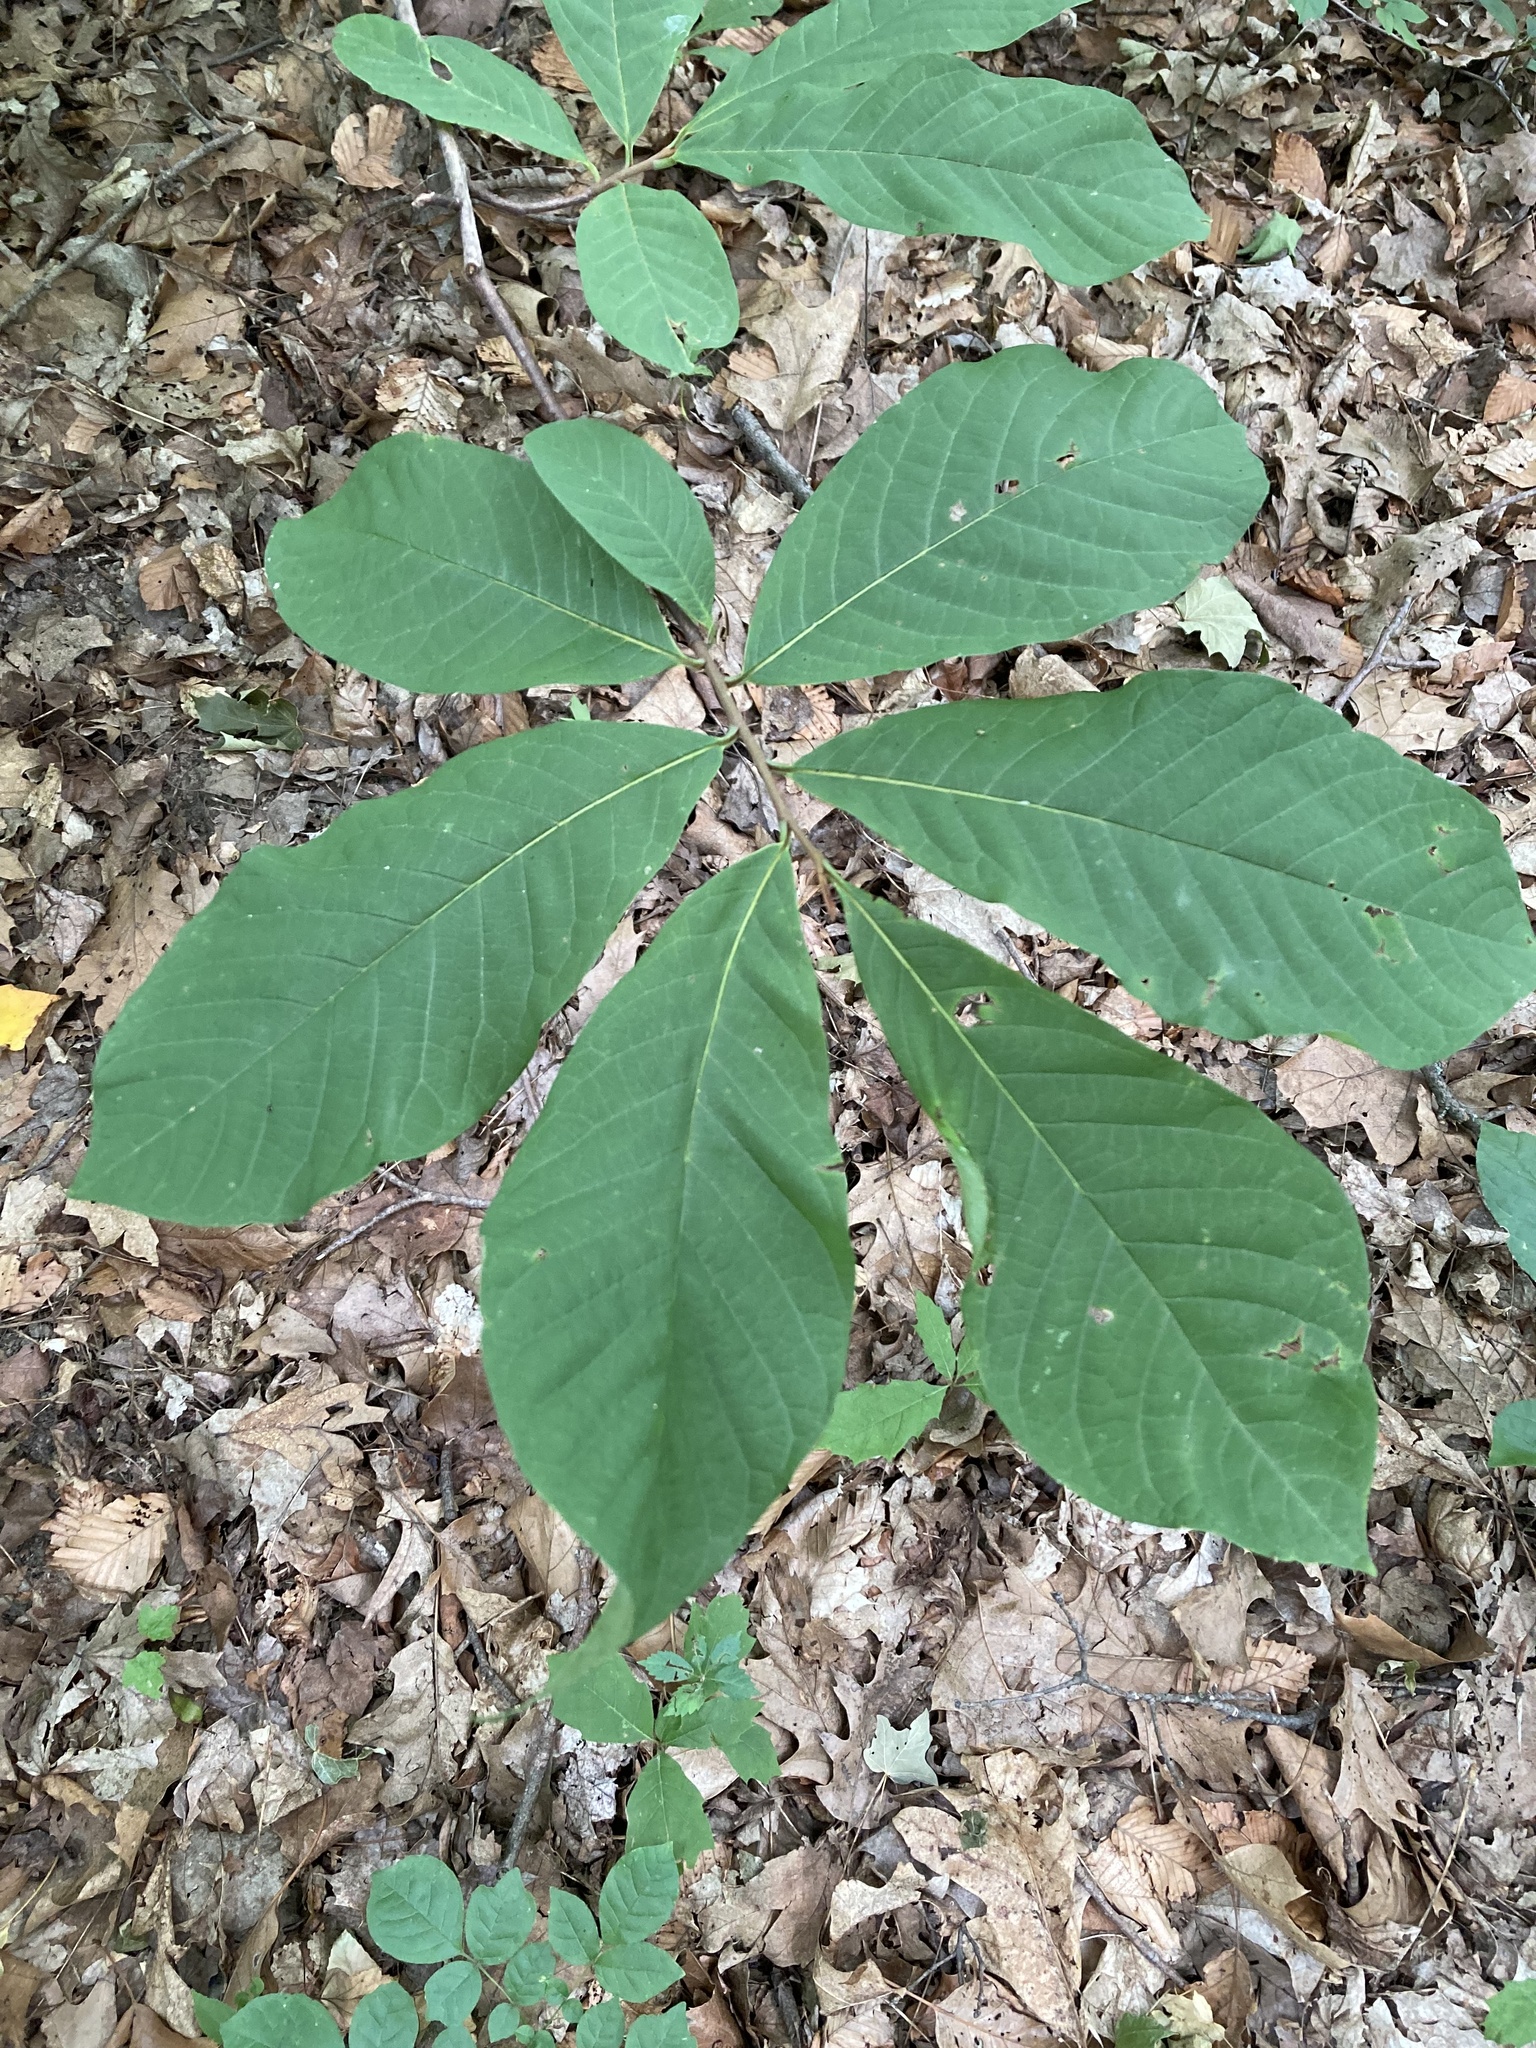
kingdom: Plantae
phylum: Tracheophyta
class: Magnoliopsida
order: Magnoliales
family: Annonaceae
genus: Asimina
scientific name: Asimina triloba
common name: Dog-banana
